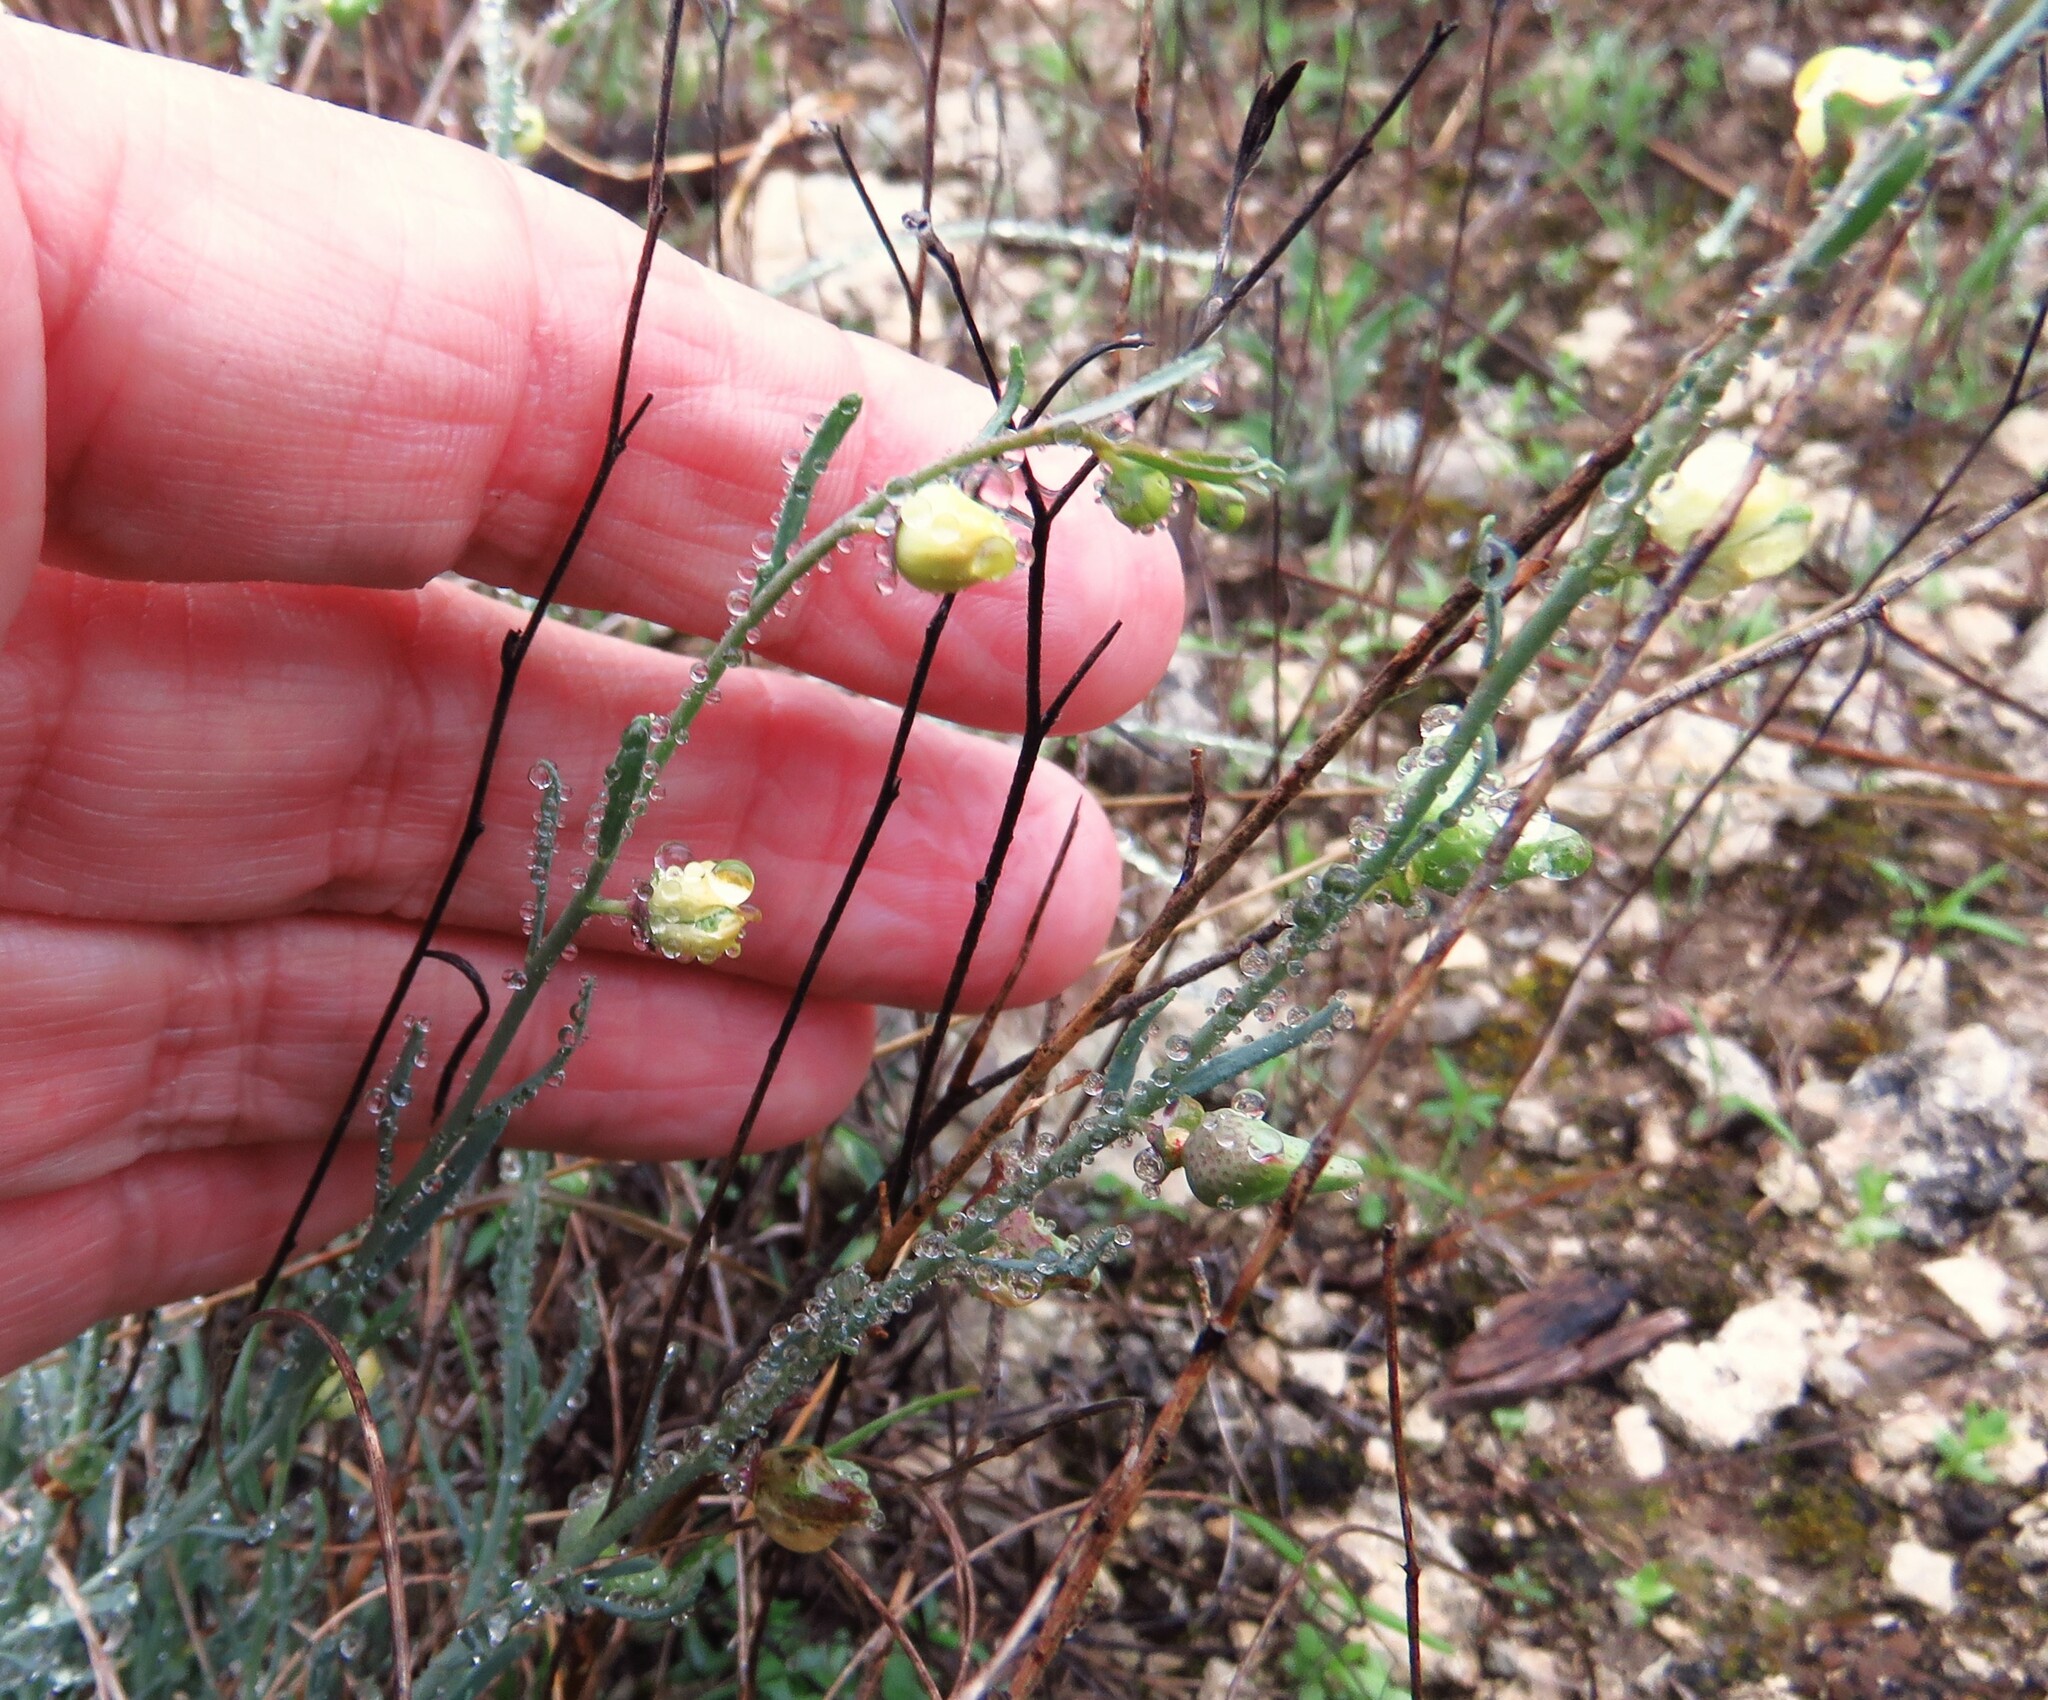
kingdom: Plantae
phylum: Tracheophyta
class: Magnoliopsida
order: Sapindales
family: Rutaceae
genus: Thamnosma
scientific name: Thamnosma texana
